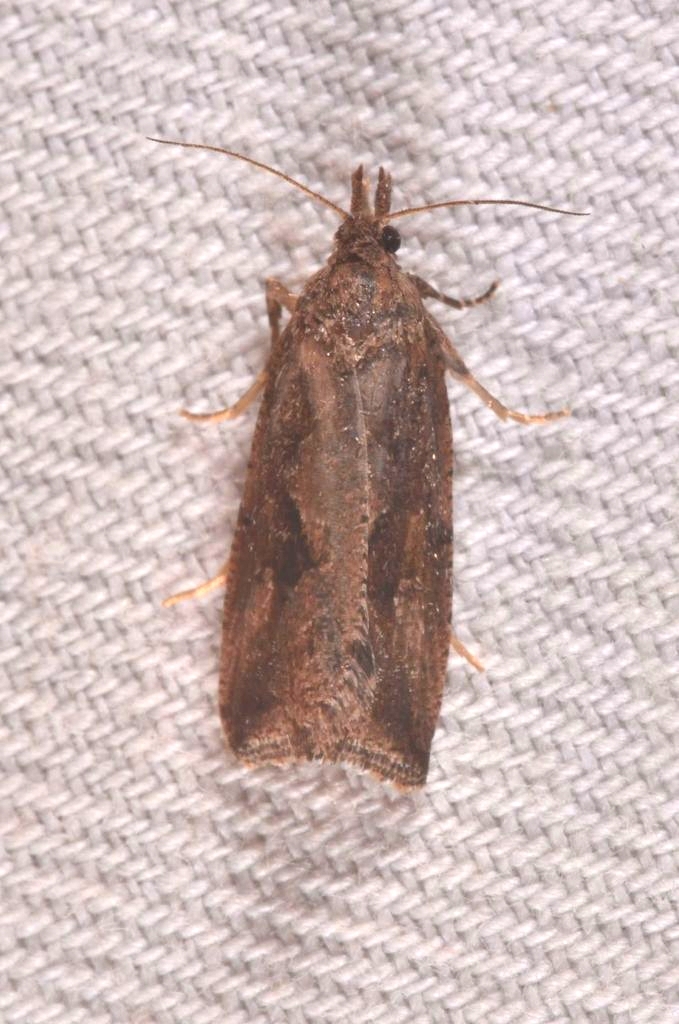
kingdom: Animalia
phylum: Arthropoda
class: Insecta
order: Lepidoptera
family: Tortricidae
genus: Endothenia
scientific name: Endothenia quadrimaculana
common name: Tortricid moth
